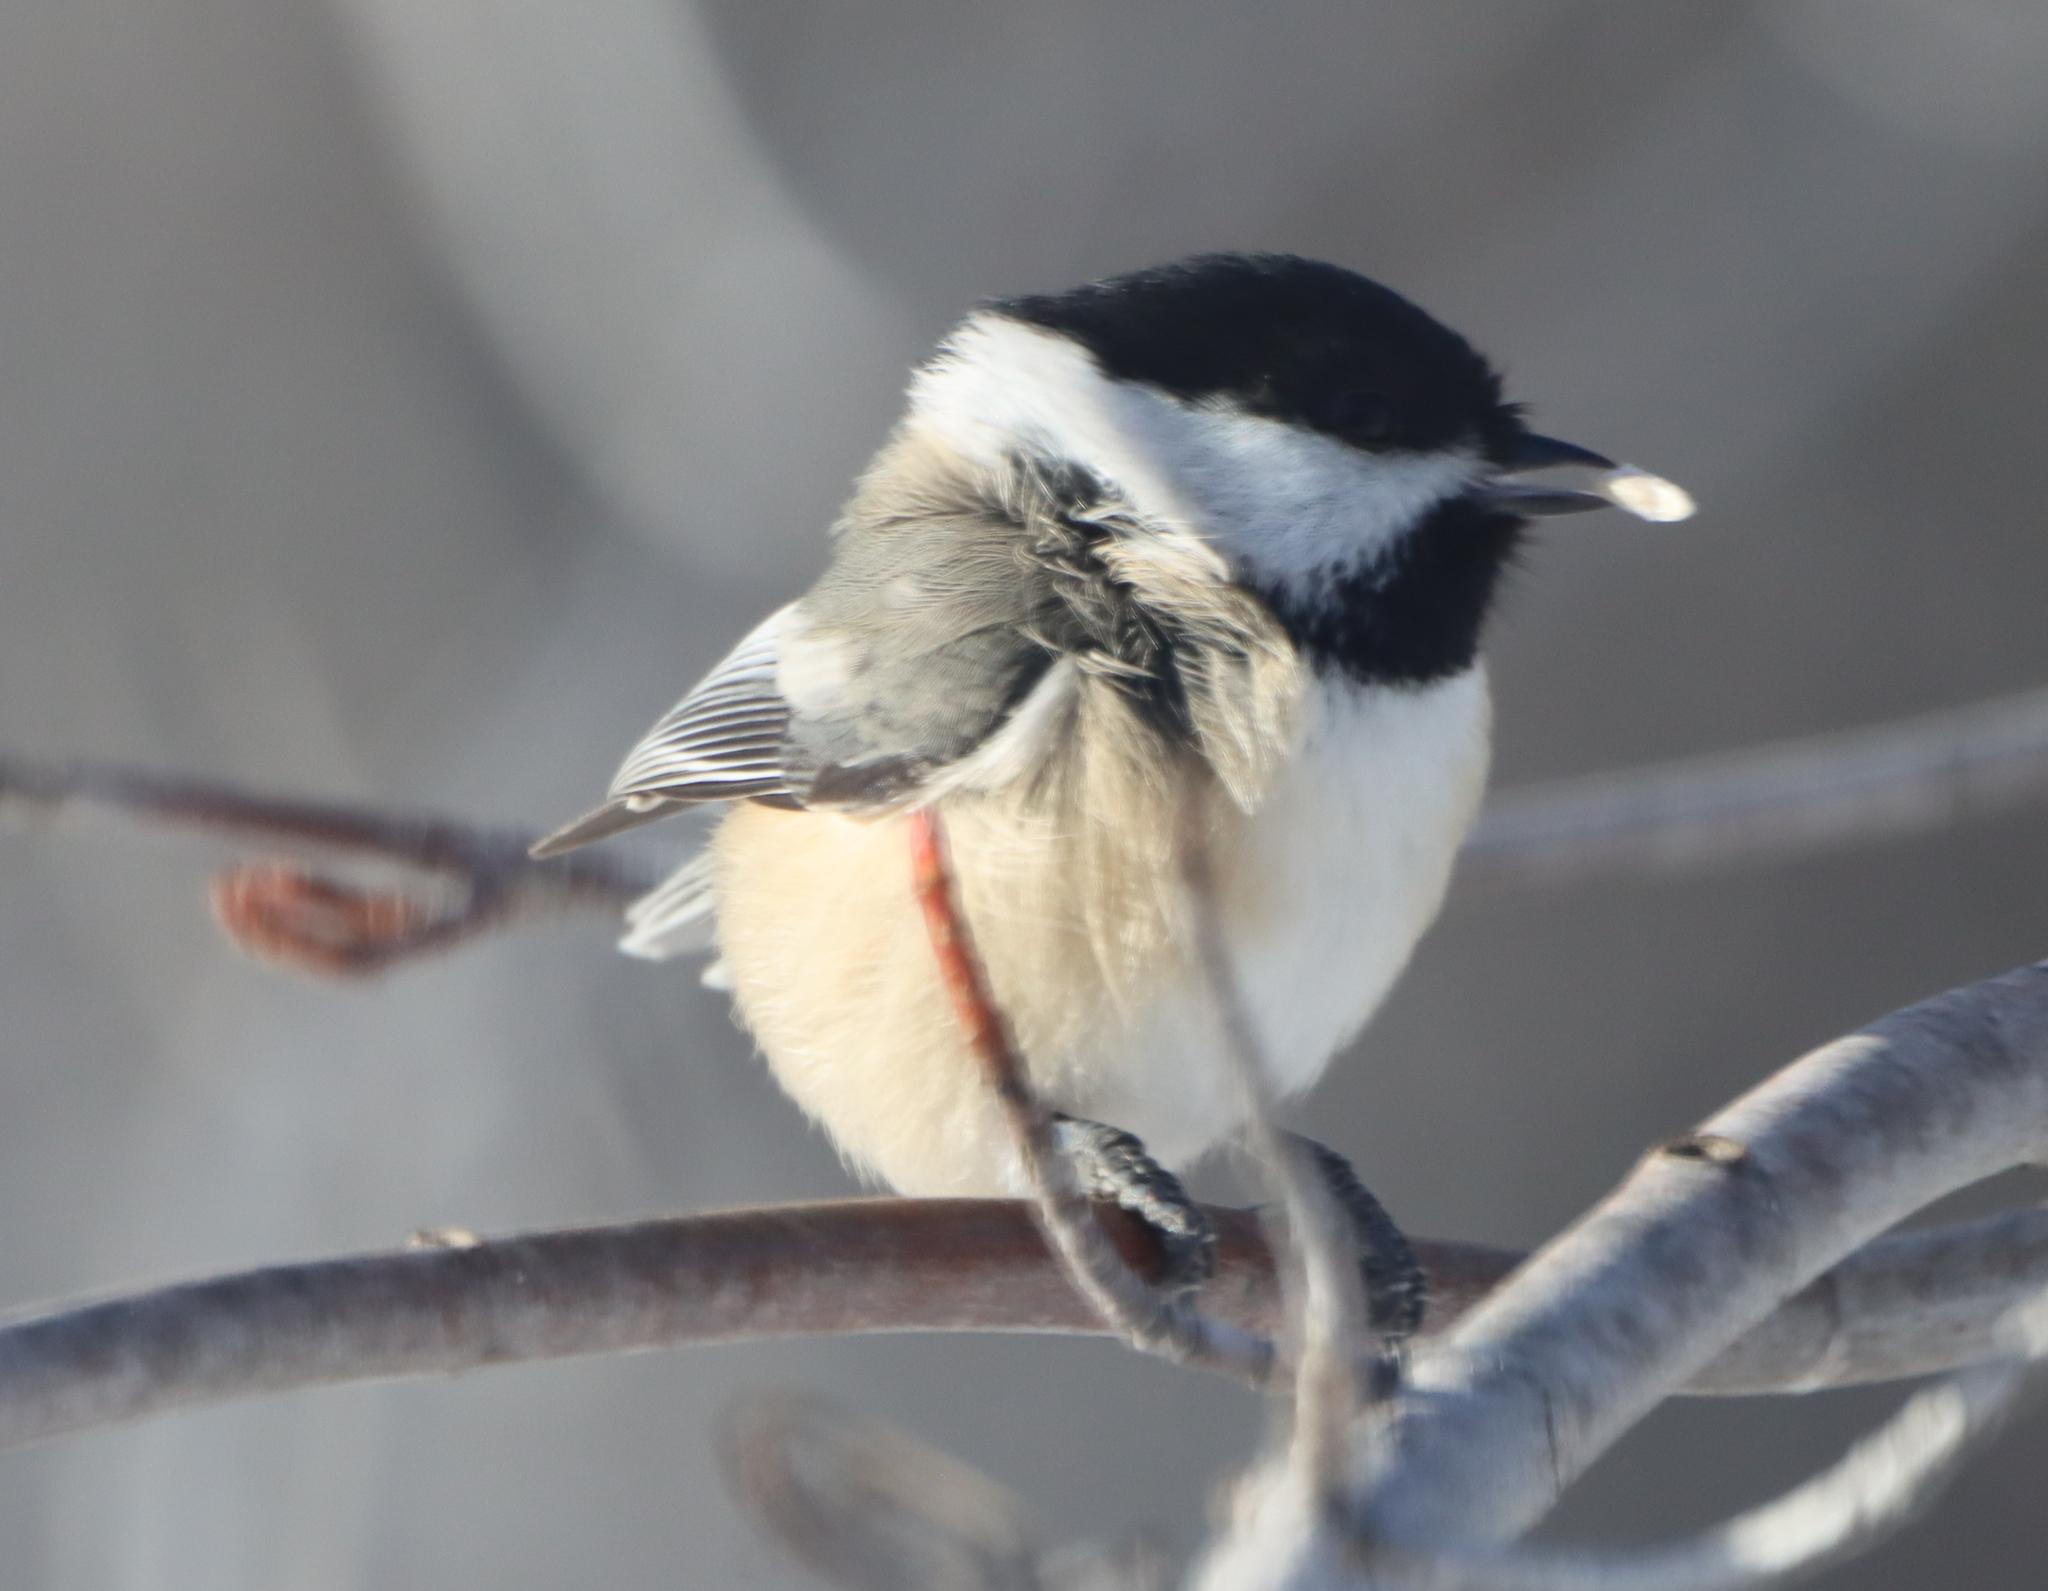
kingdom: Animalia
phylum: Chordata
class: Aves
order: Passeriformes
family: Paridae
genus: Poecile
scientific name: Poecile atricapillus
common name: Black-capped chickadee
